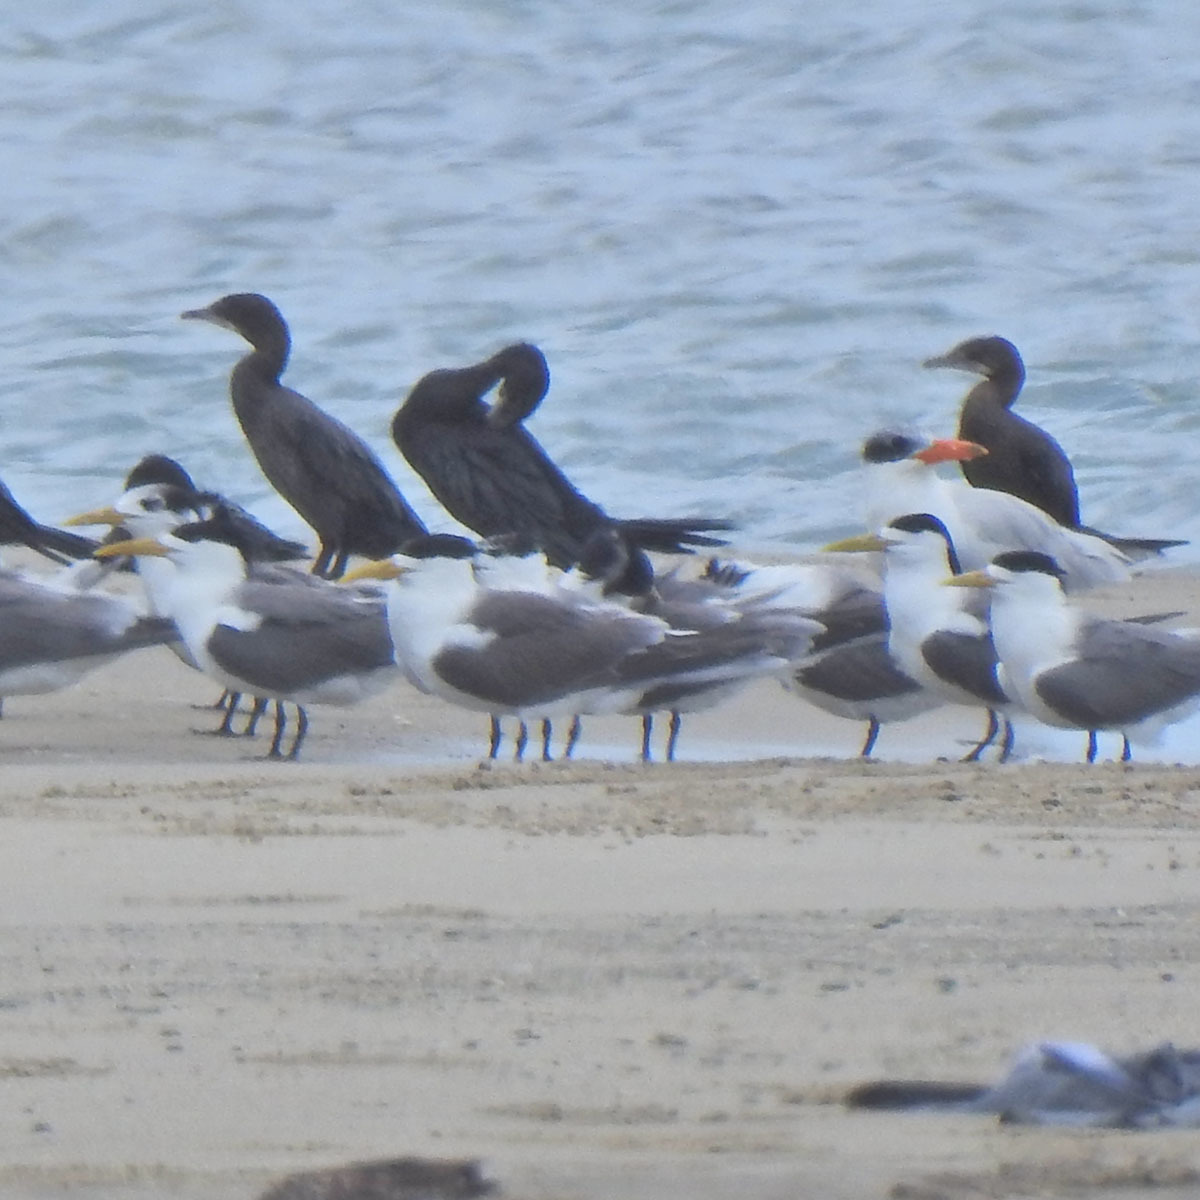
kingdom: Animalia
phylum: Chordata
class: Aves
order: Charadriiformes
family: Laridae
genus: Thalasseus
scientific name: Thalasseus bergii
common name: Greater crested tern
